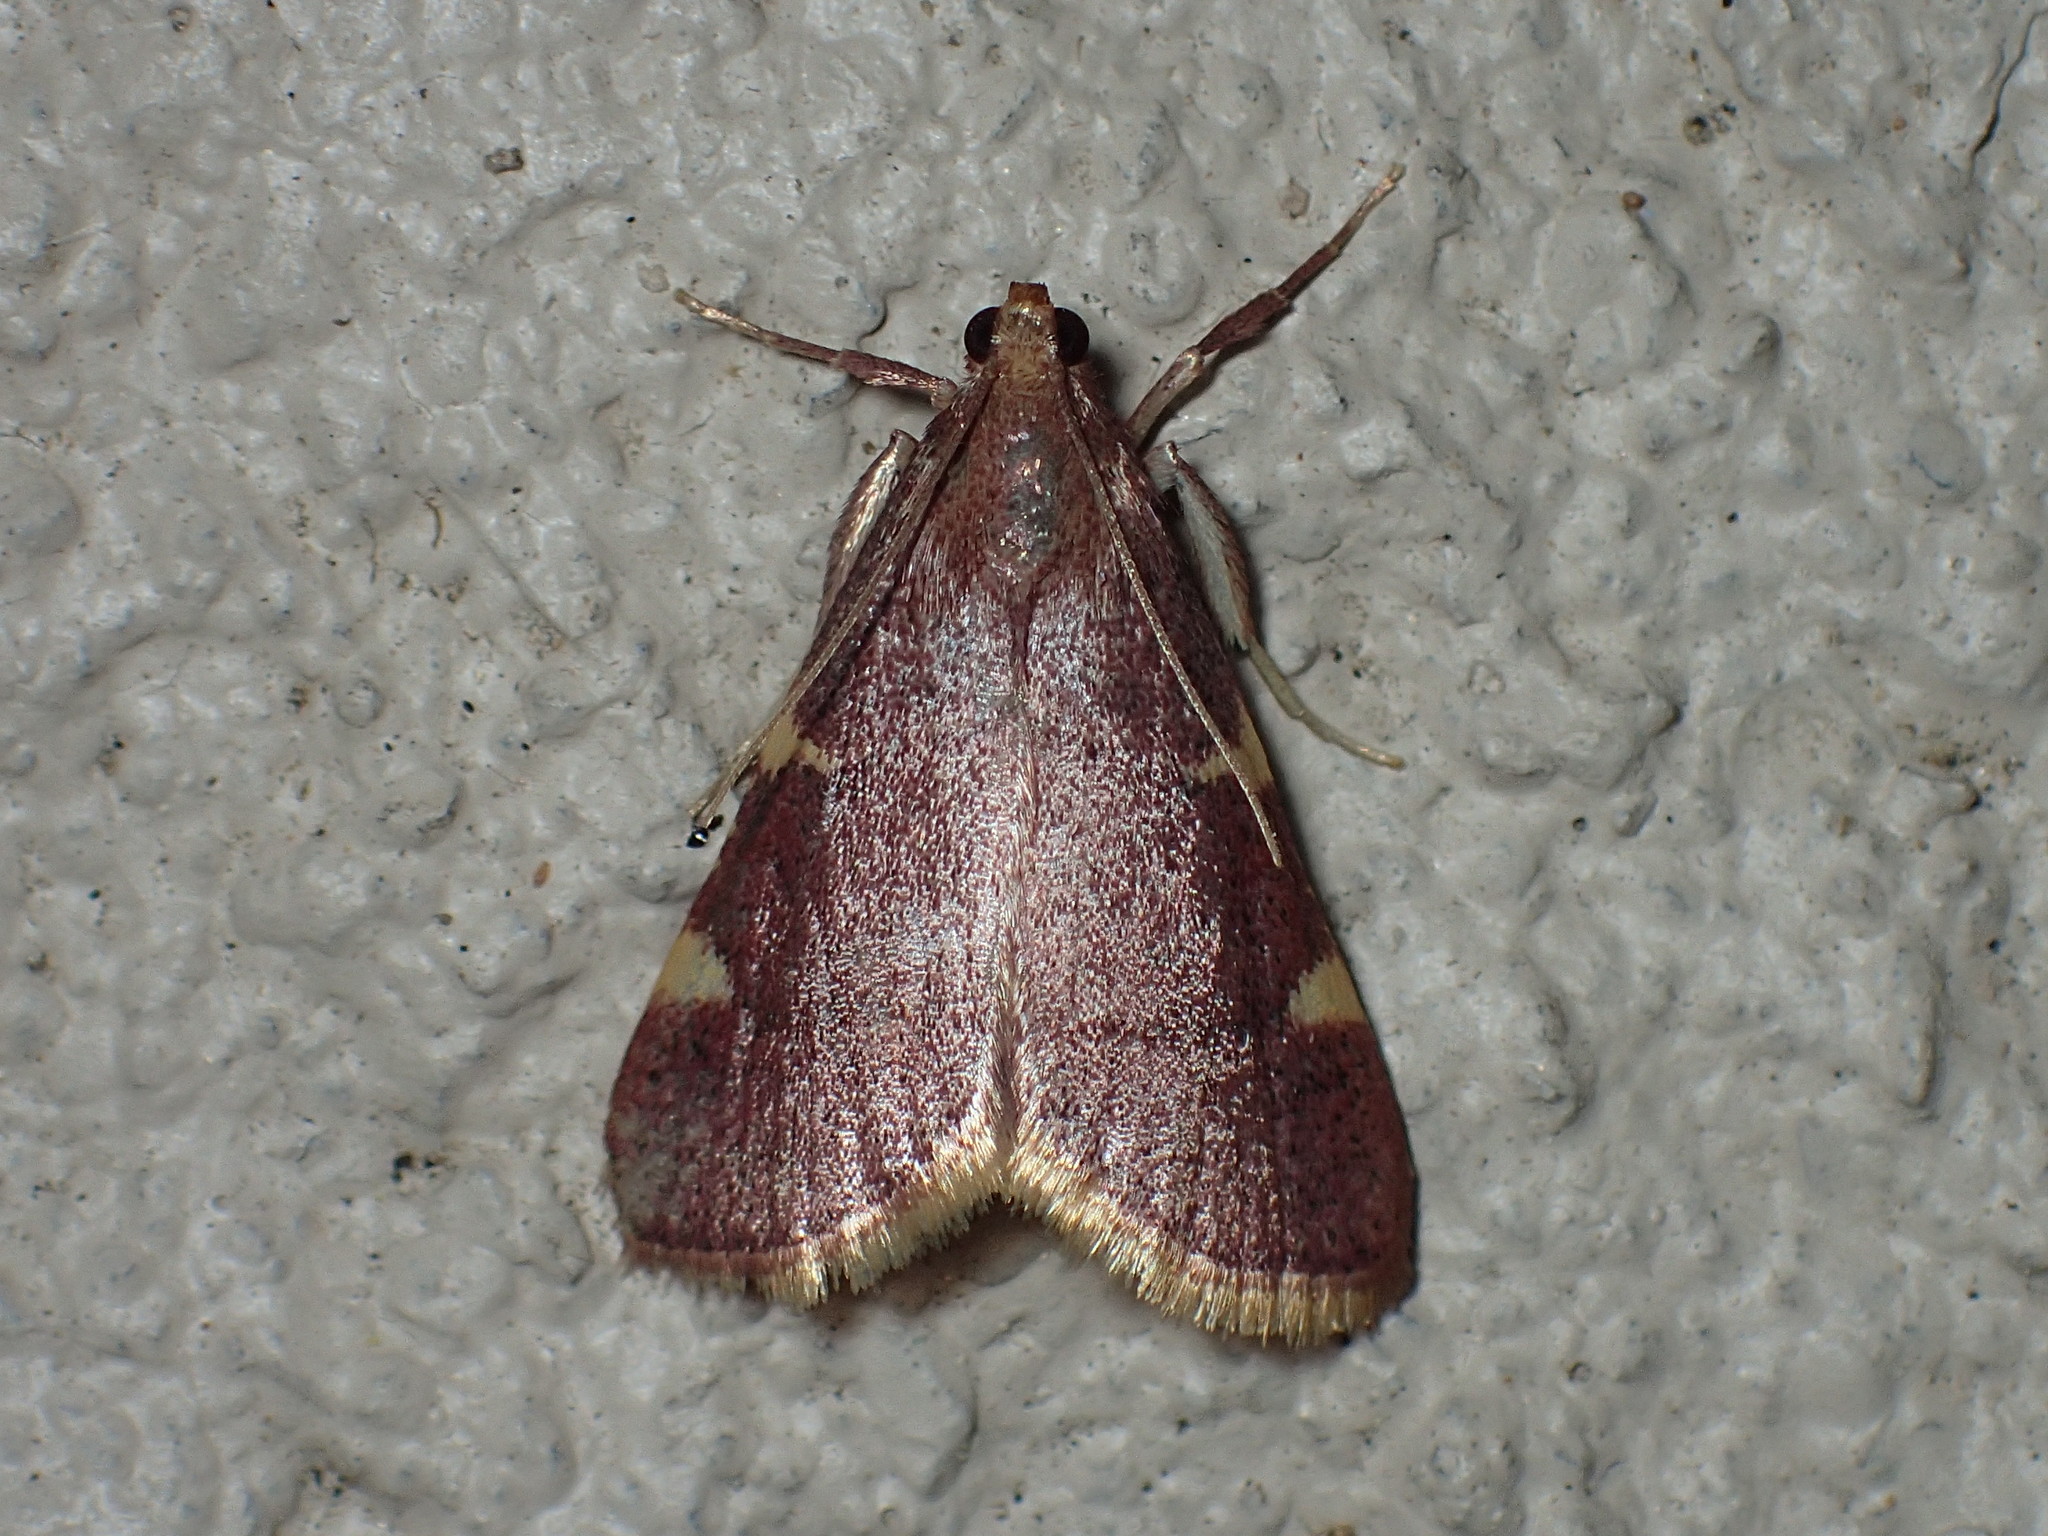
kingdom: Animalia
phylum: Arthropoda
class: Insecta
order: Lepidoptera
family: Pyralidae
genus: Hypsopygia
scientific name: Hypsopygia olinalis
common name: Yellow-fringed dolichomia moth
